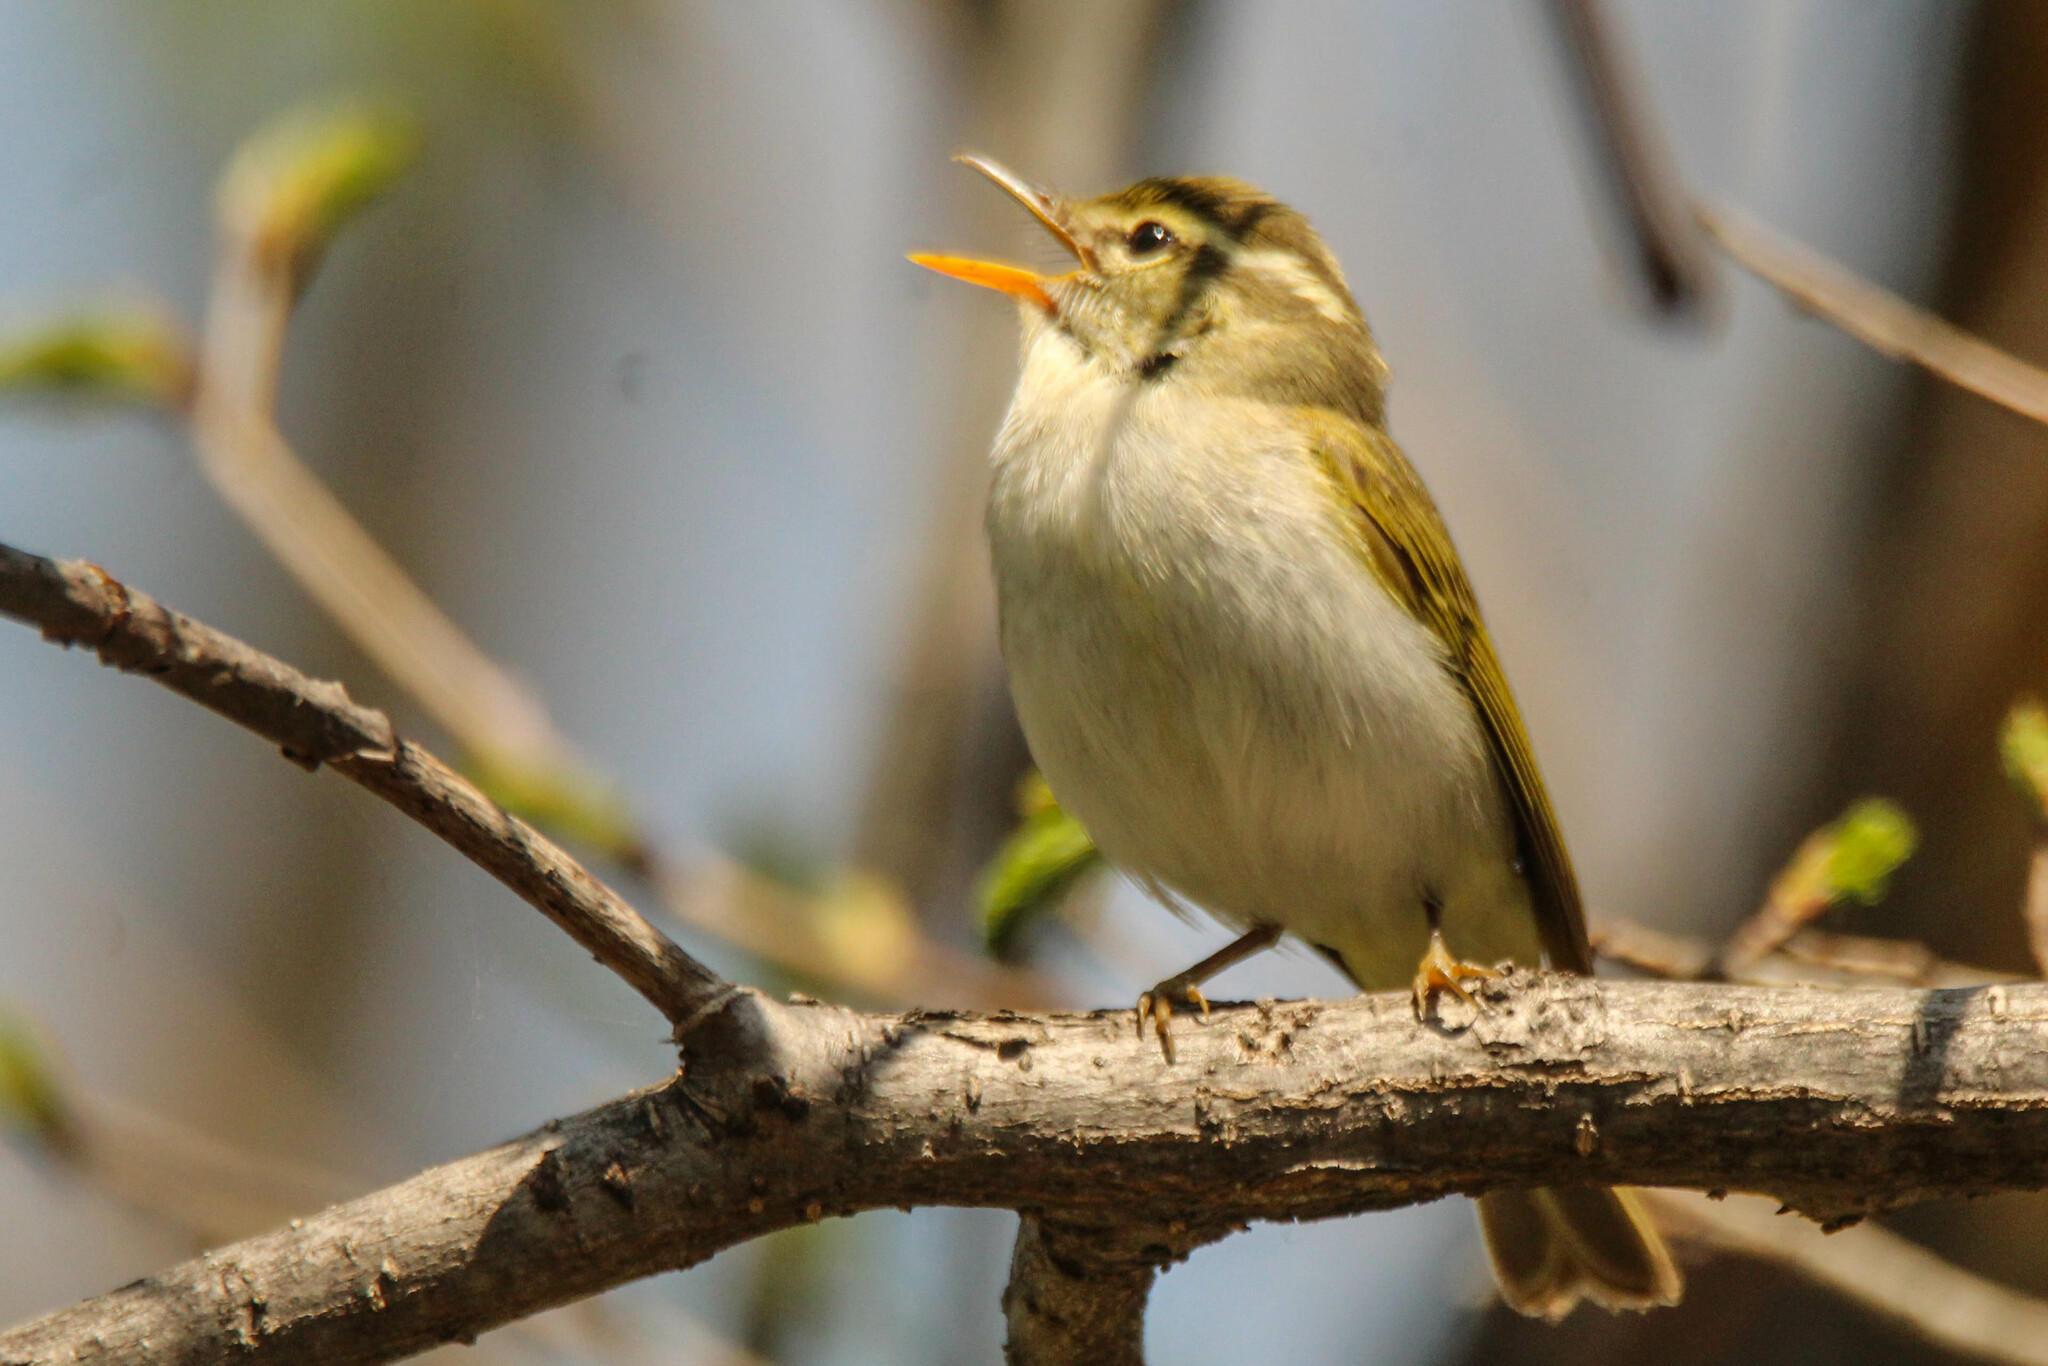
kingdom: Animalia
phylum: Chordata
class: Aves
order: Passeriformes
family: Phylloscopidae
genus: Phylloscopus
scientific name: Phylloscopus coronatus
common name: Eastern crowned warbler
